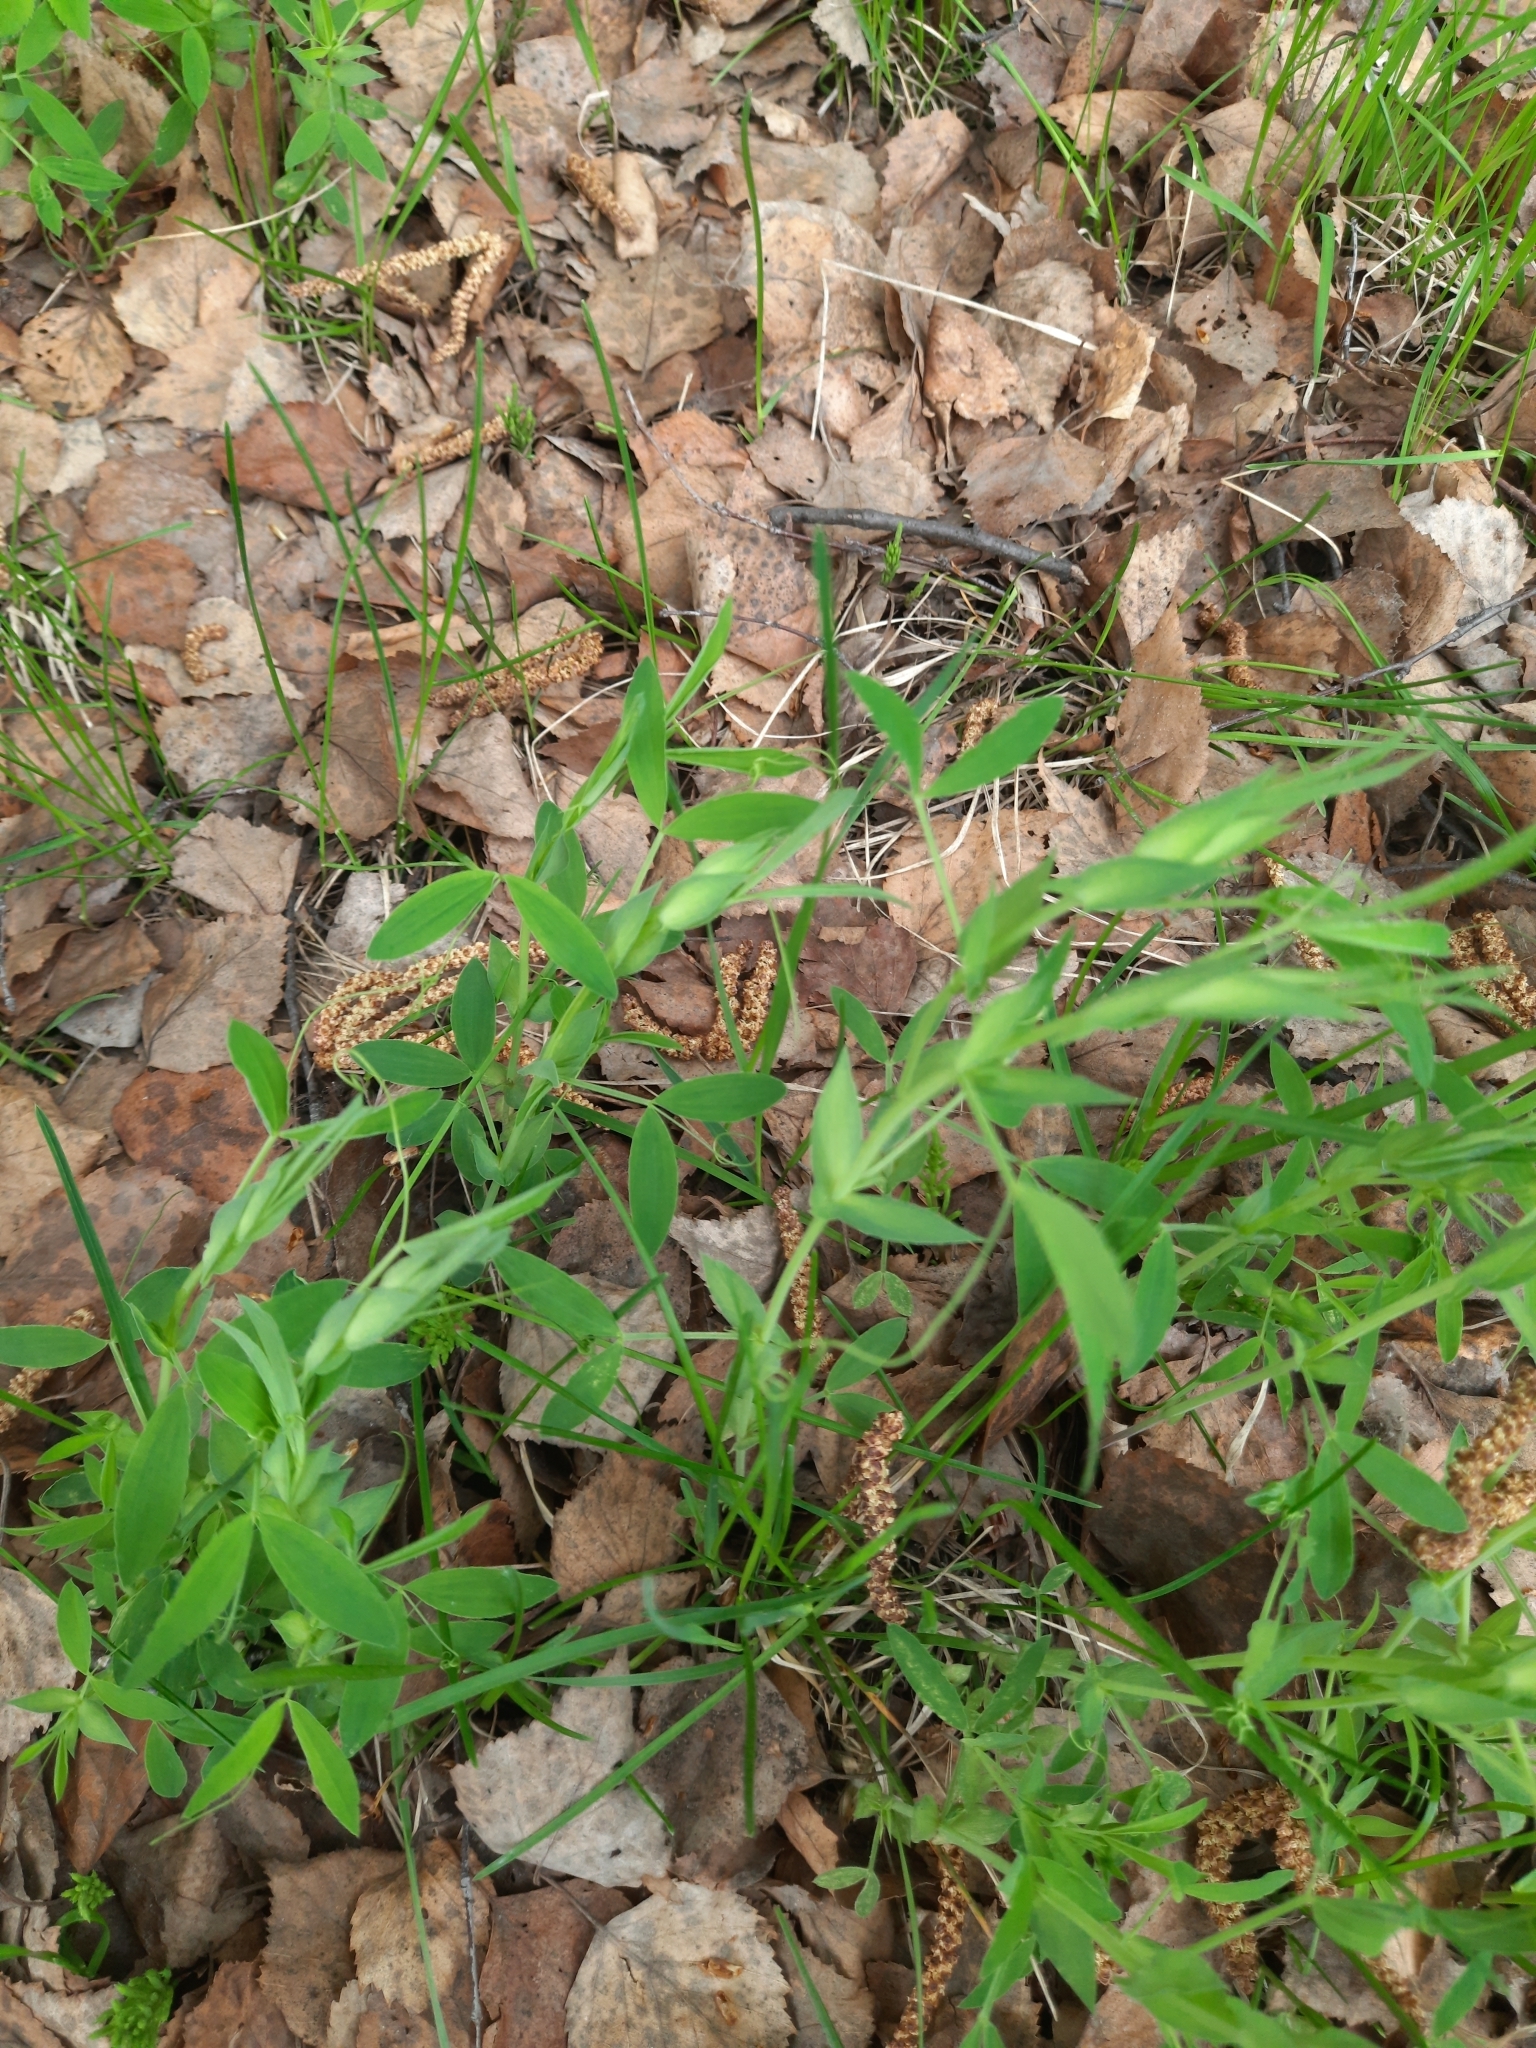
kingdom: Plantae
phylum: Tracheophyta
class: Magnoliopsida
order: Fabales
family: Fabaceae
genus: Lathyrus
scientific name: Lathyrus pratensis
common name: Meadow vetchling
